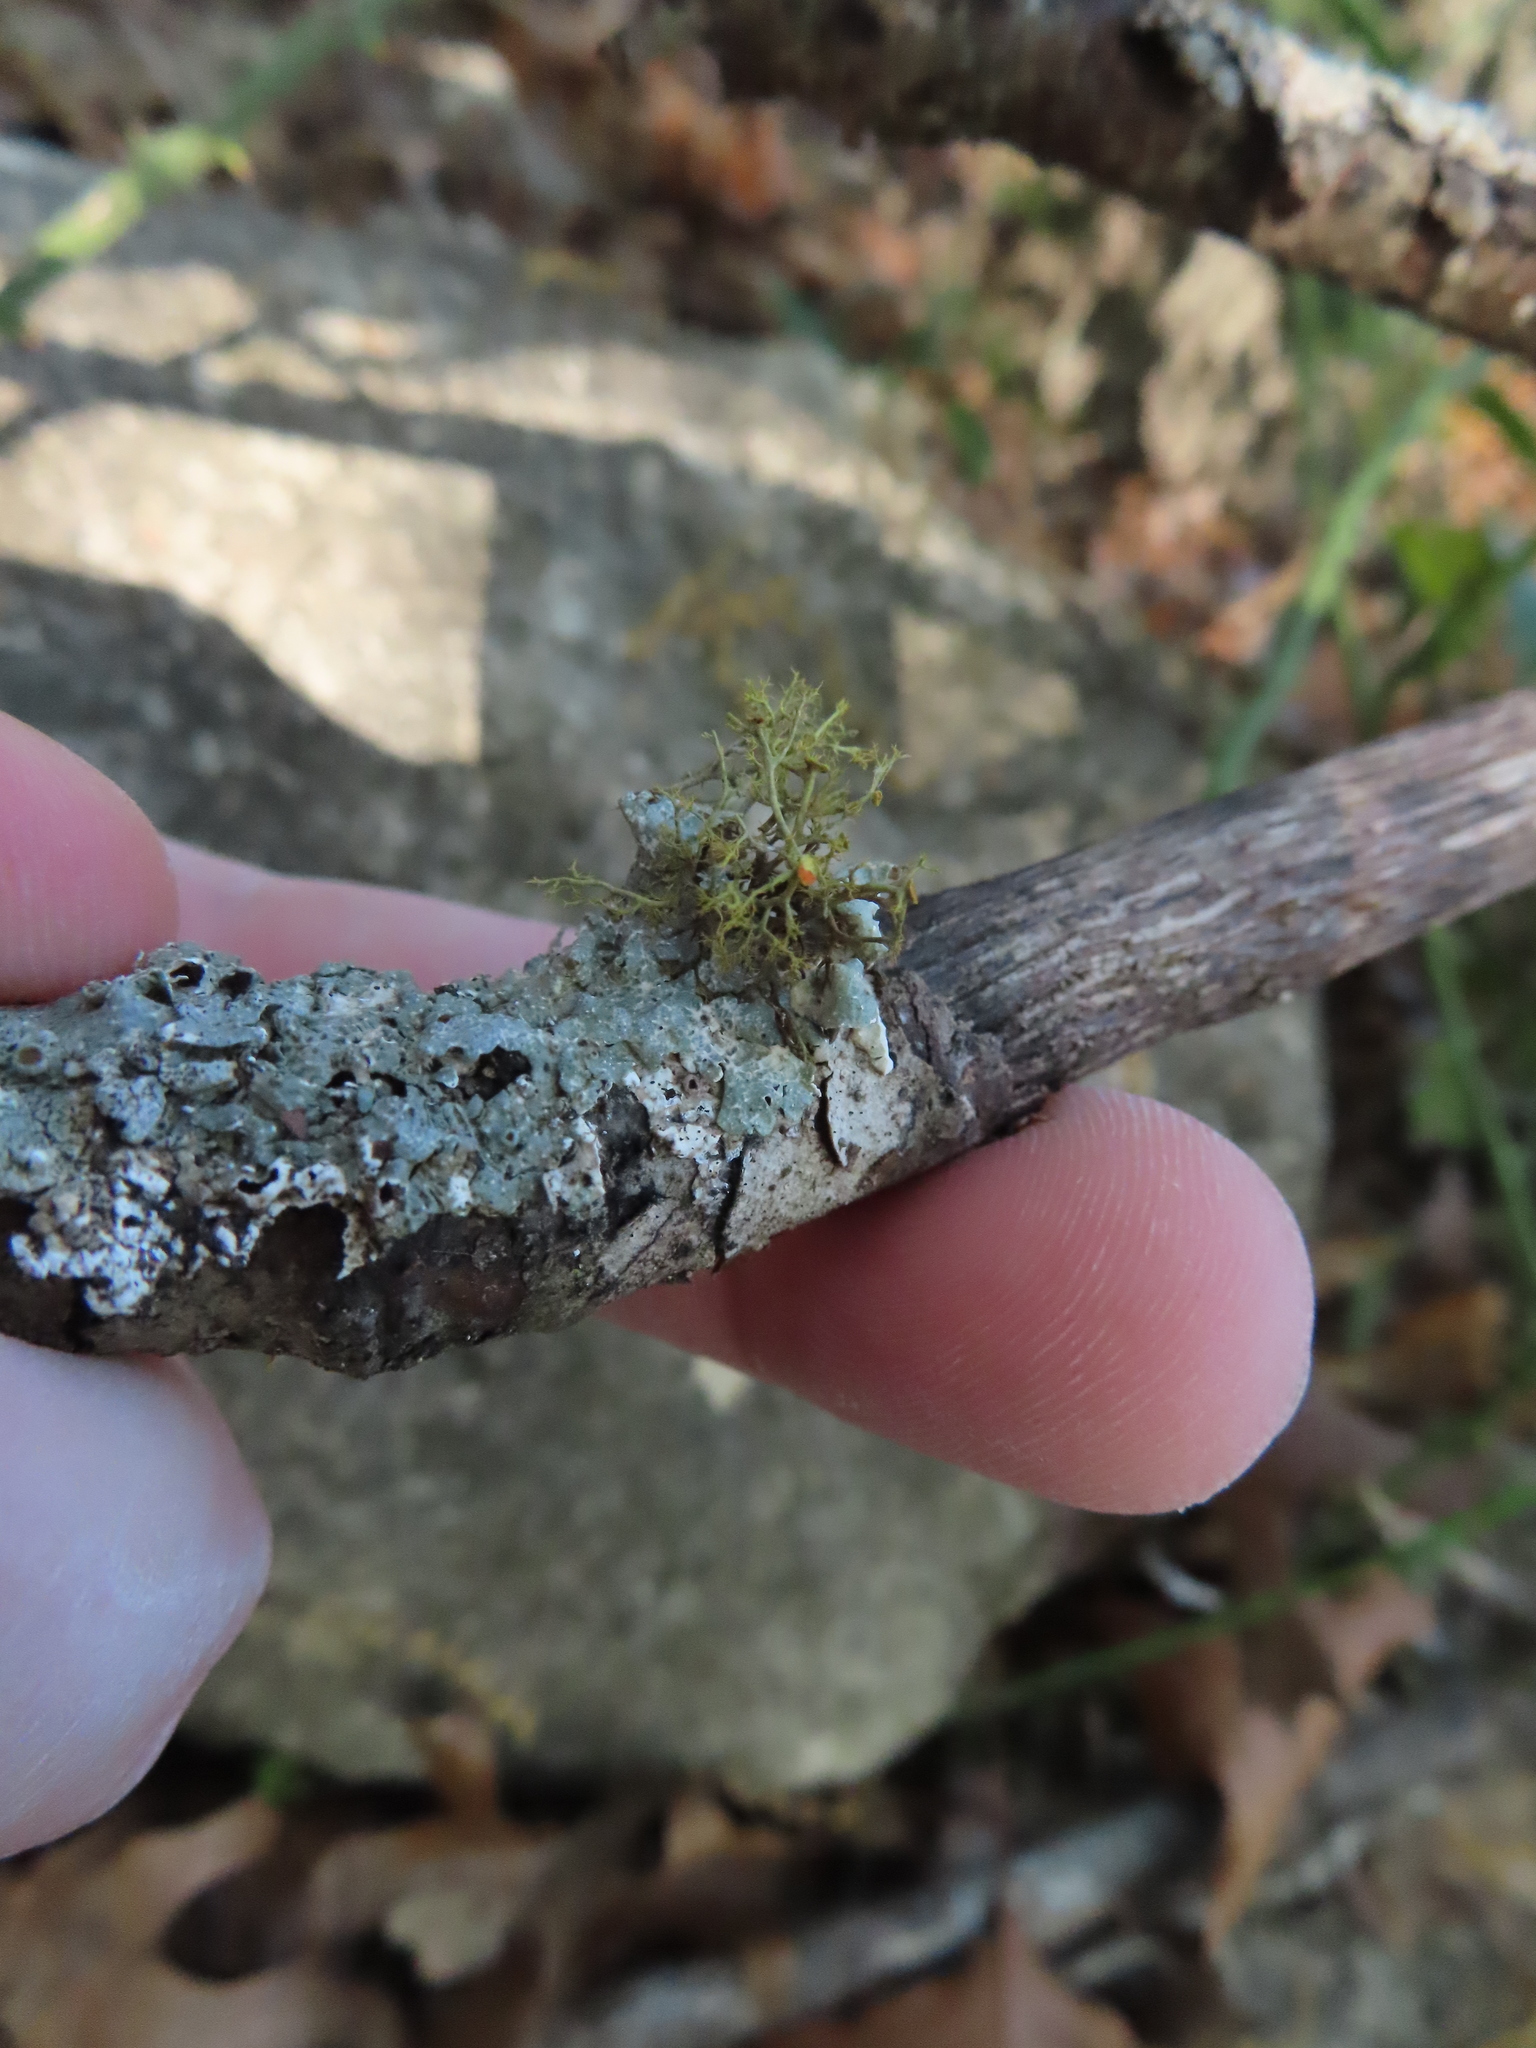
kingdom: Fungi
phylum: Ascomycota
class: Lecanoromycetes
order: Teloschistales
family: Teloschistaceae
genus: Teloschistes
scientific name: Teloschistes exilis
